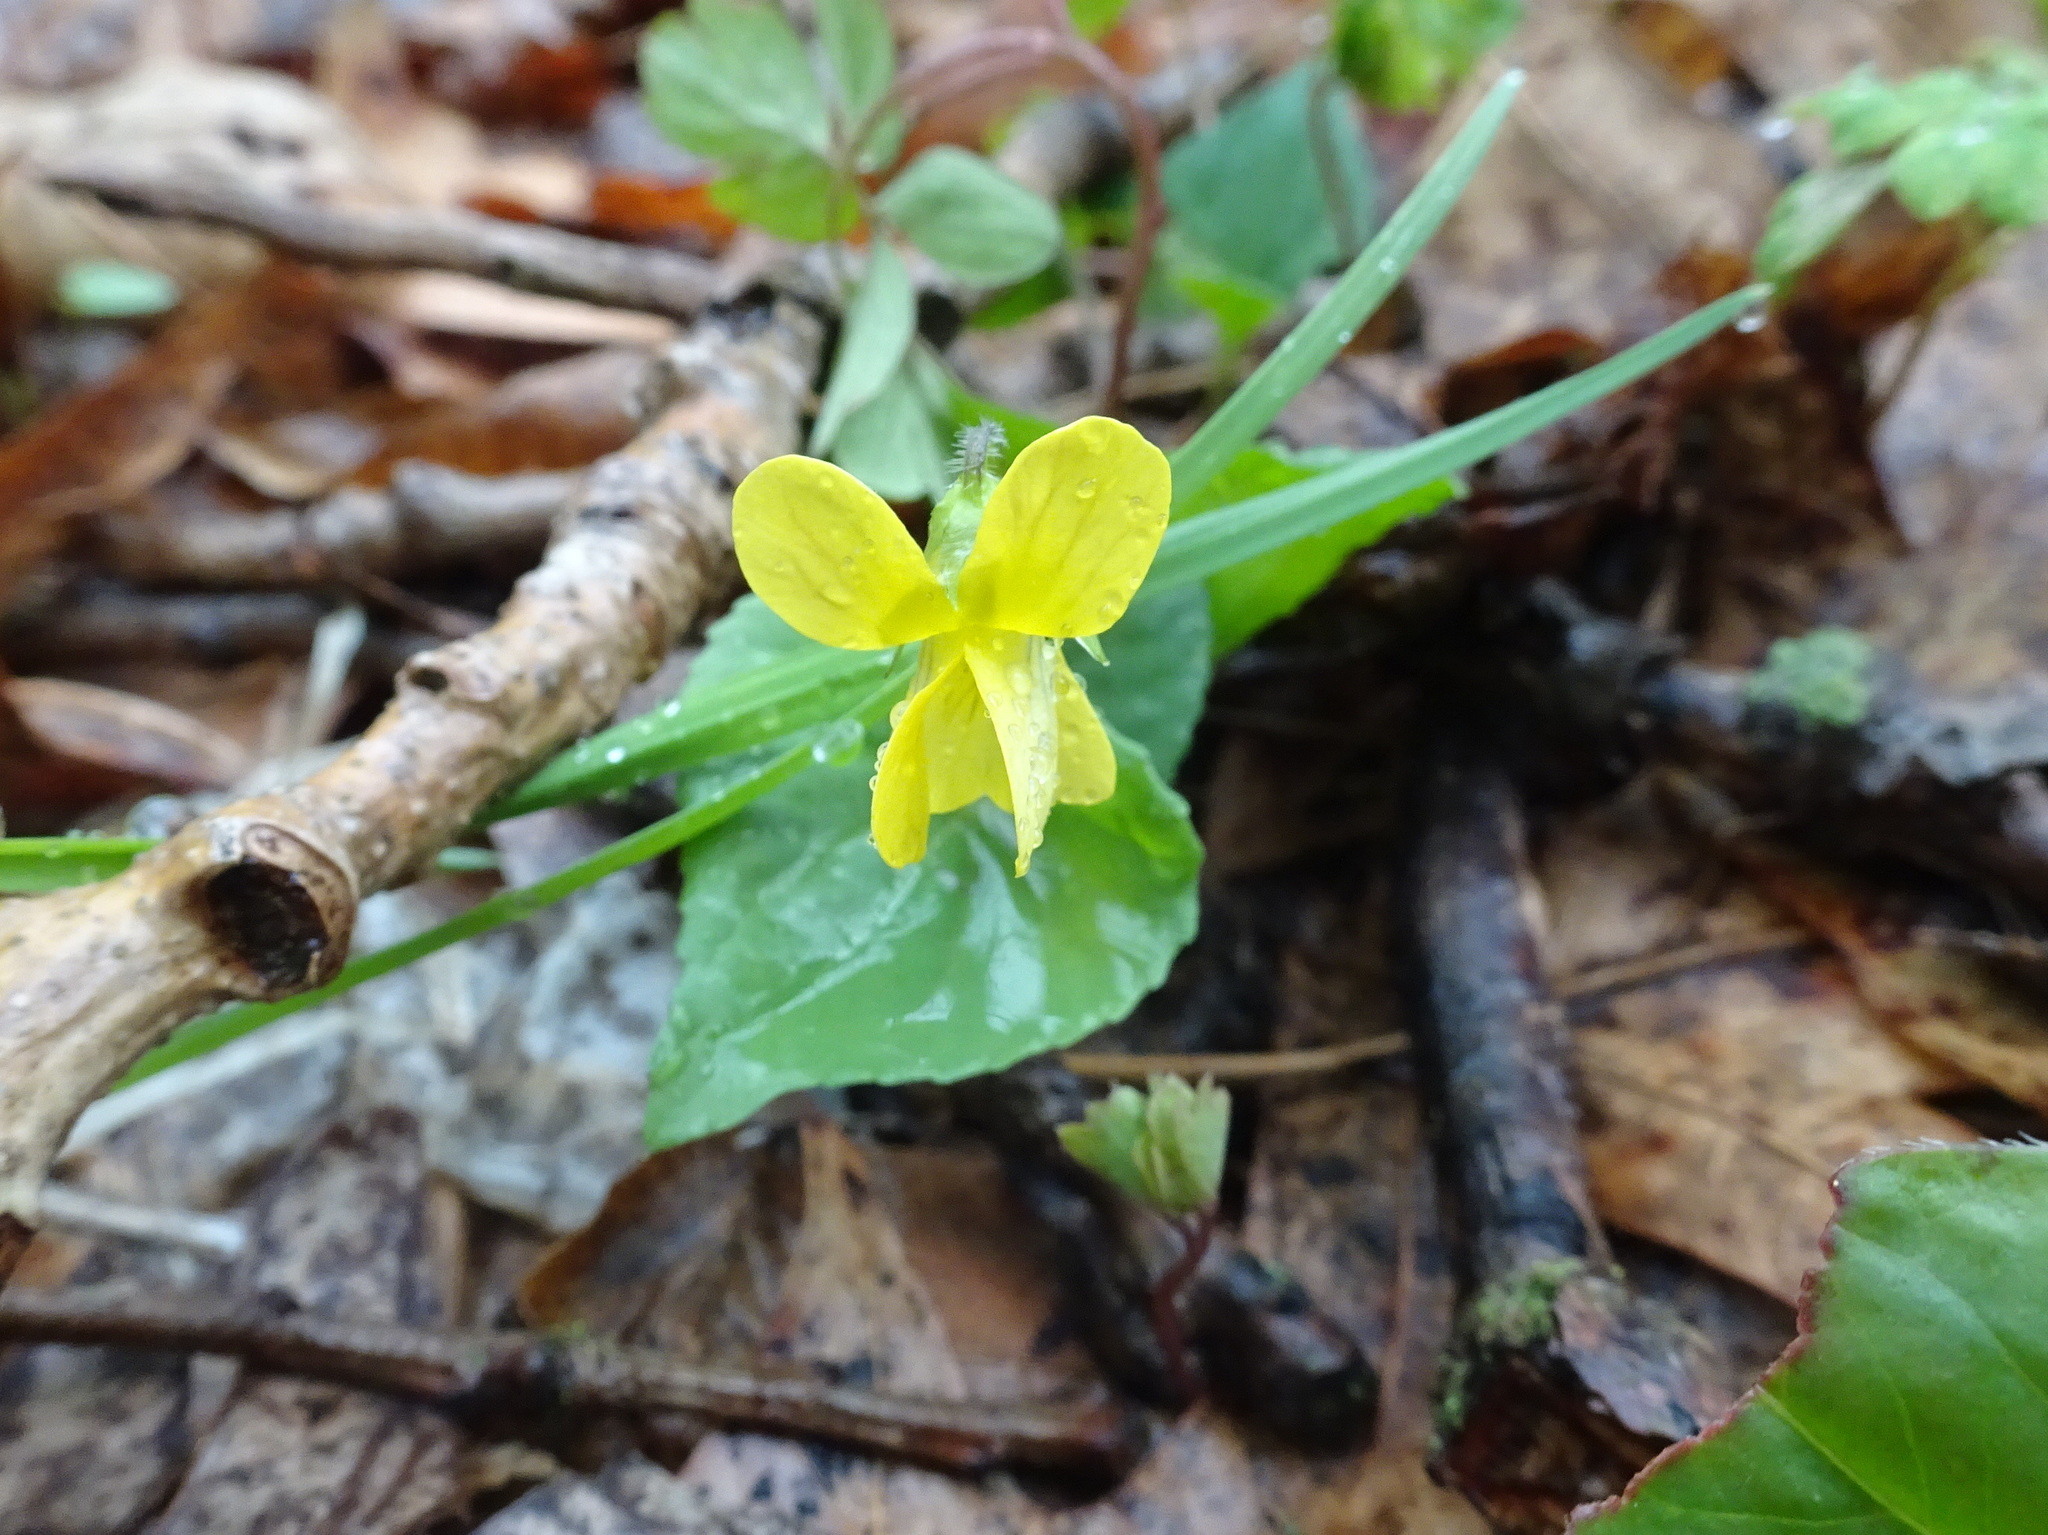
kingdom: Plantae
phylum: Tracheophyta
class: Magnoliopsida
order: Malpighiales
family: Violaceae
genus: Viola
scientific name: Viola eriocarpa
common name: Smooth yellow violet
